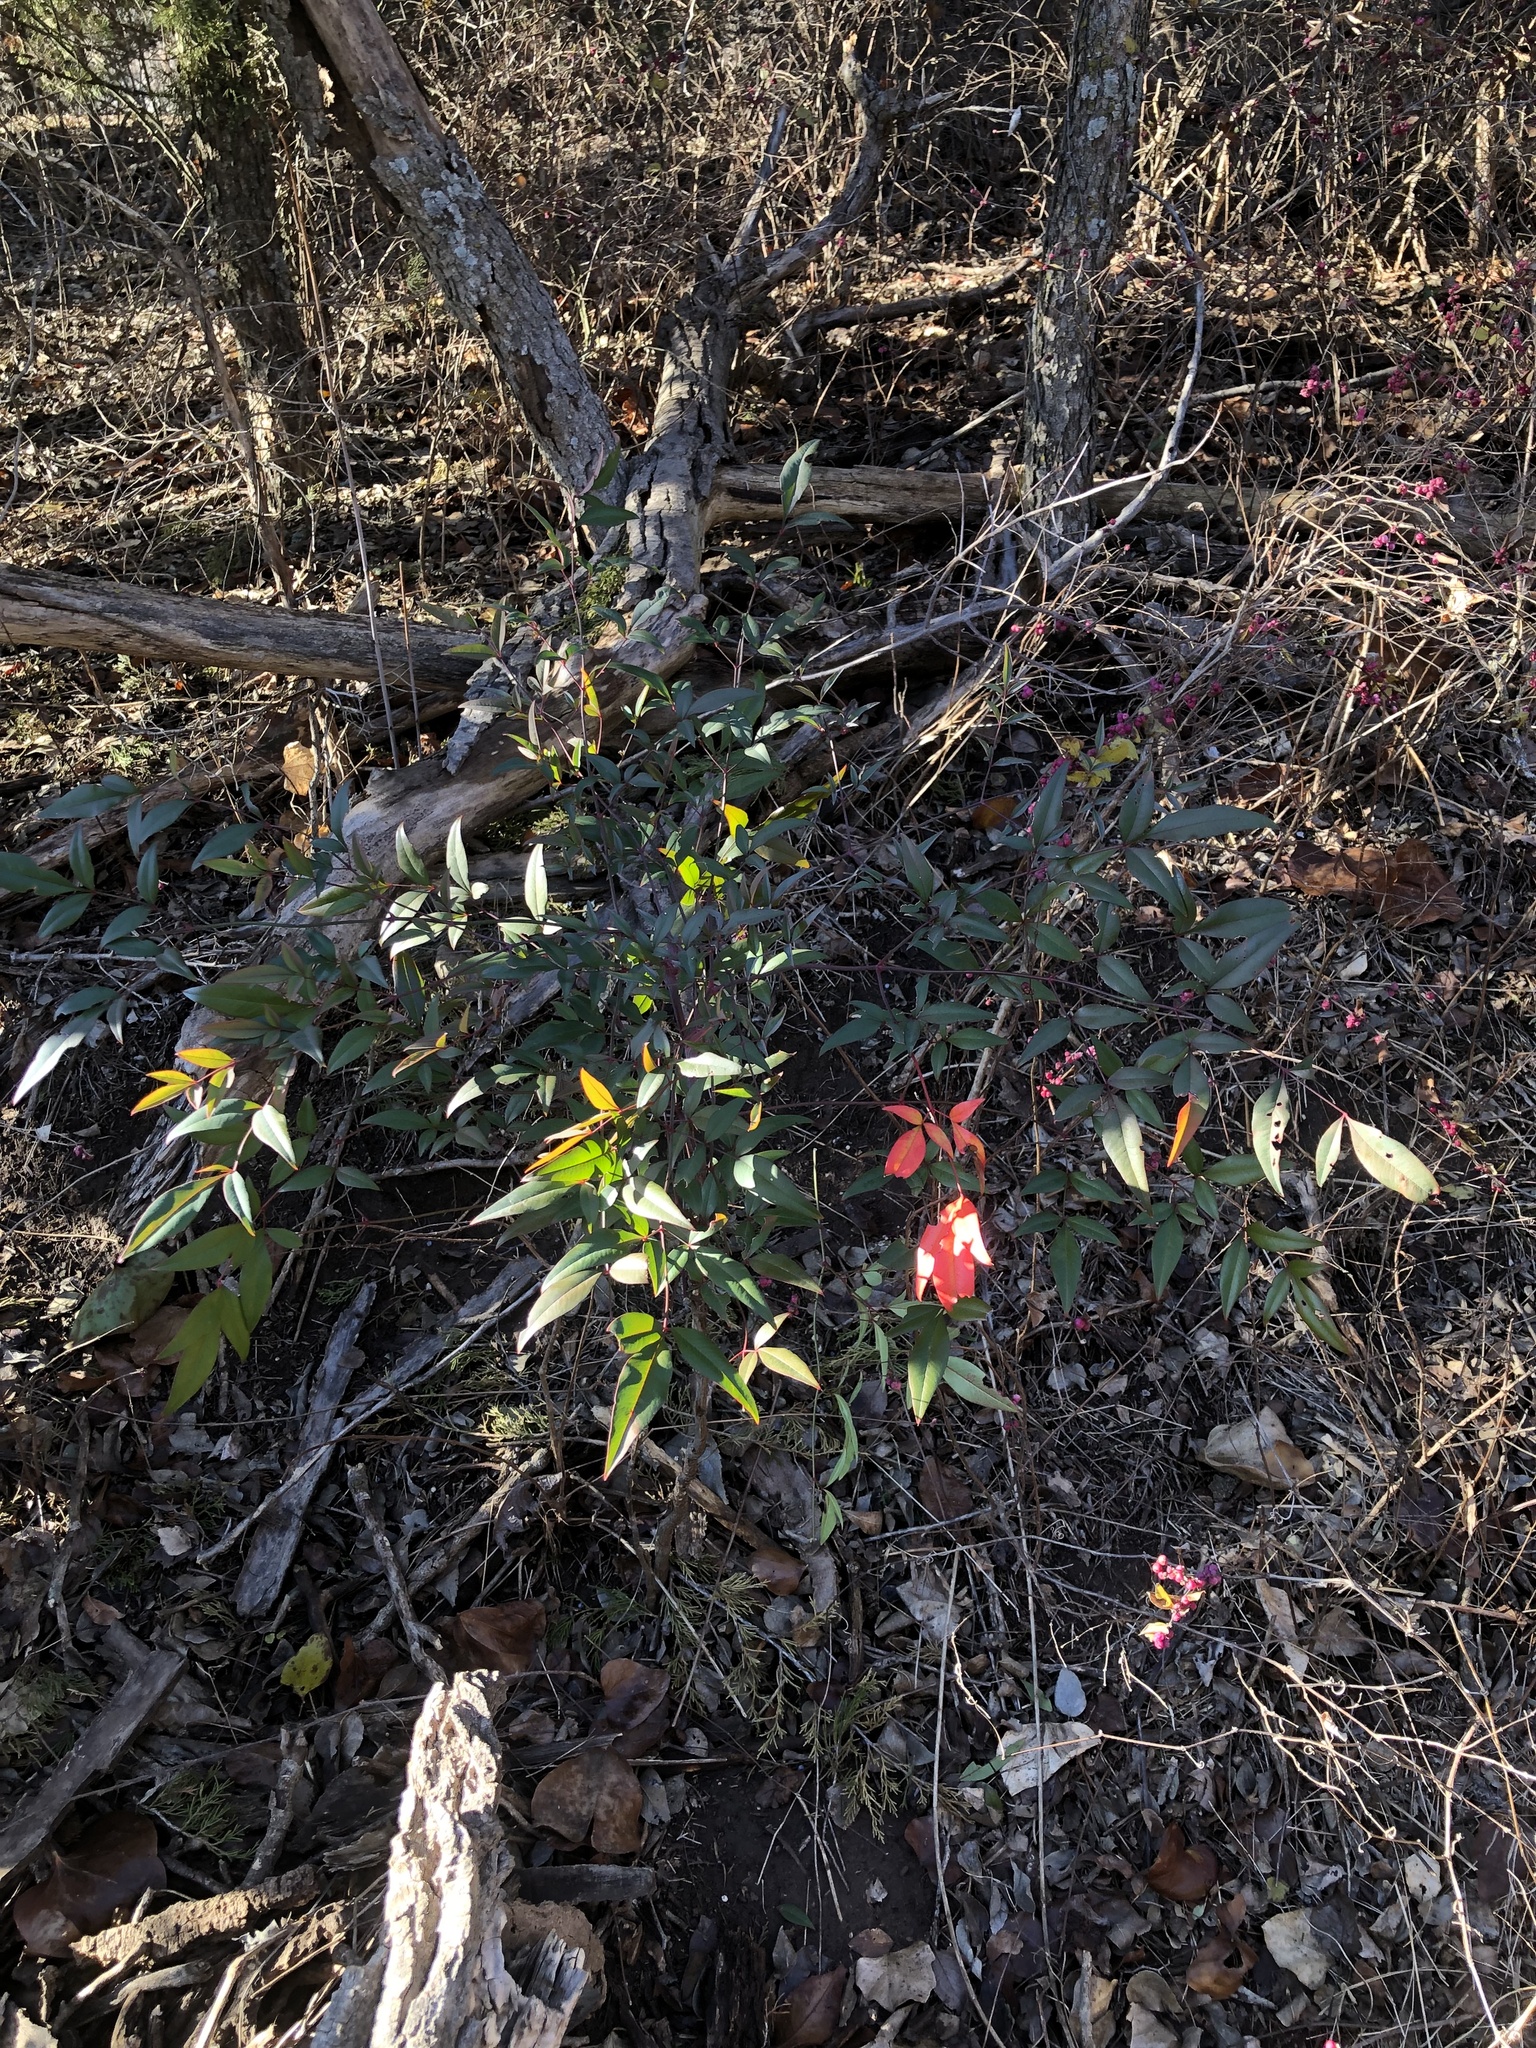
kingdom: Plantae
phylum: Tracheophyta
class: Magnoliopsida
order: Ranunculales
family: Berberidaceae
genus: Nandina
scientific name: Nandina domestica
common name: Sacred bamboo
